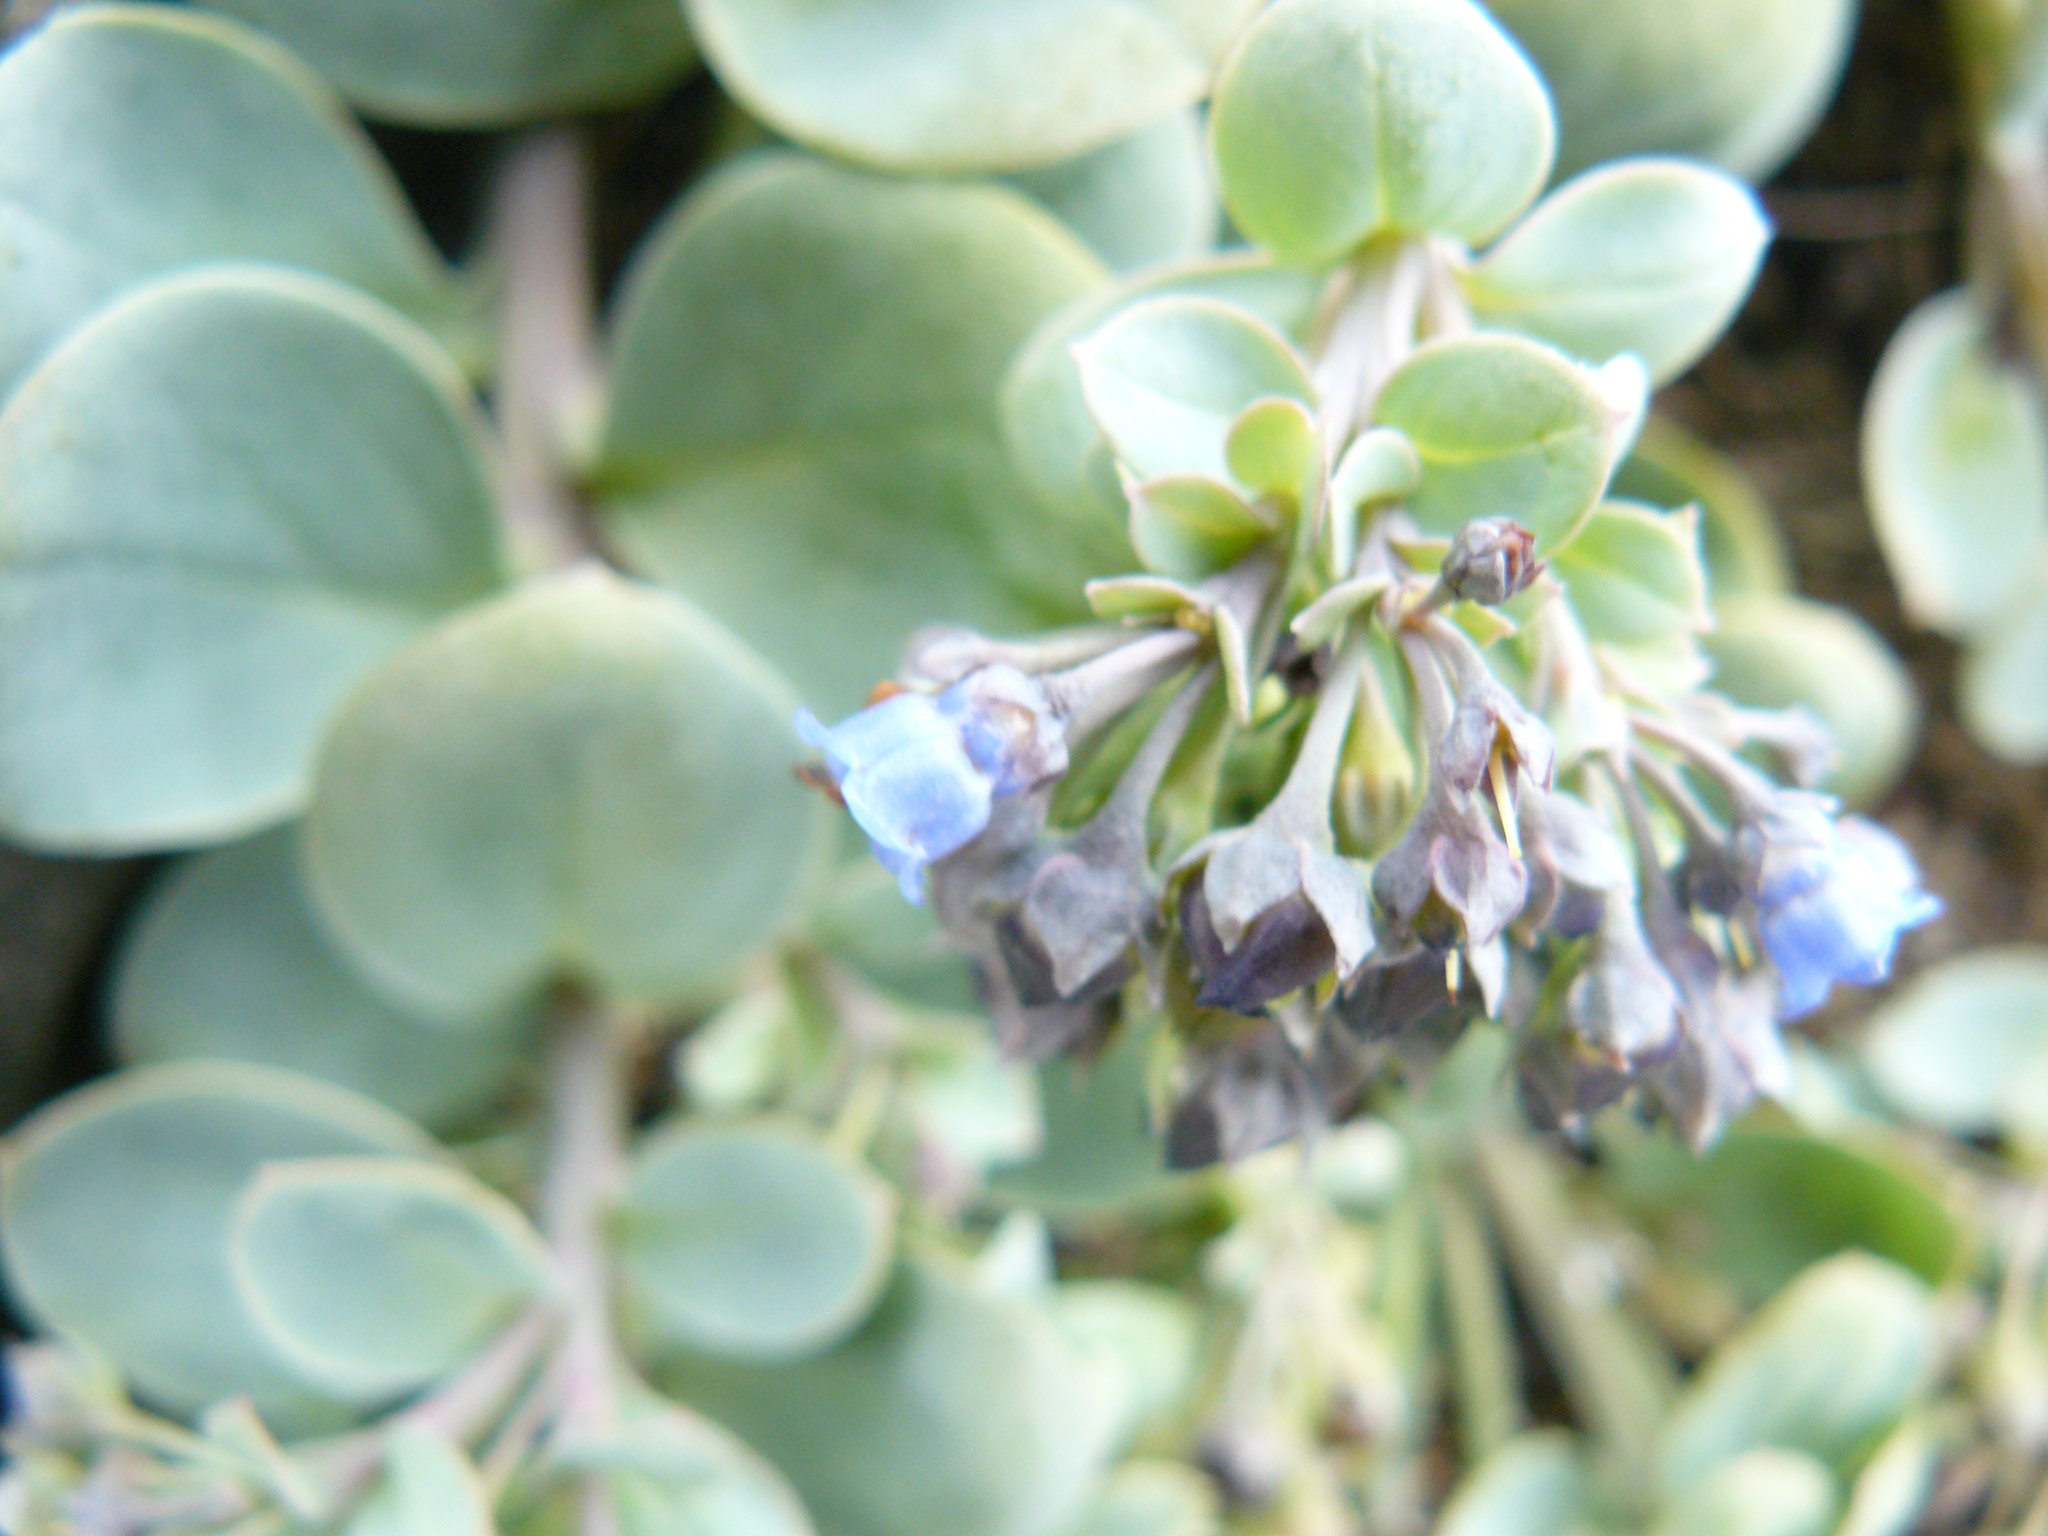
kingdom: Plantae
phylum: Tracheophyta
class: Magnoliopsida
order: Boraginales
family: Boraginaceae
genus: Mertensia
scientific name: Mertensia maritima
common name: Oysterplant
